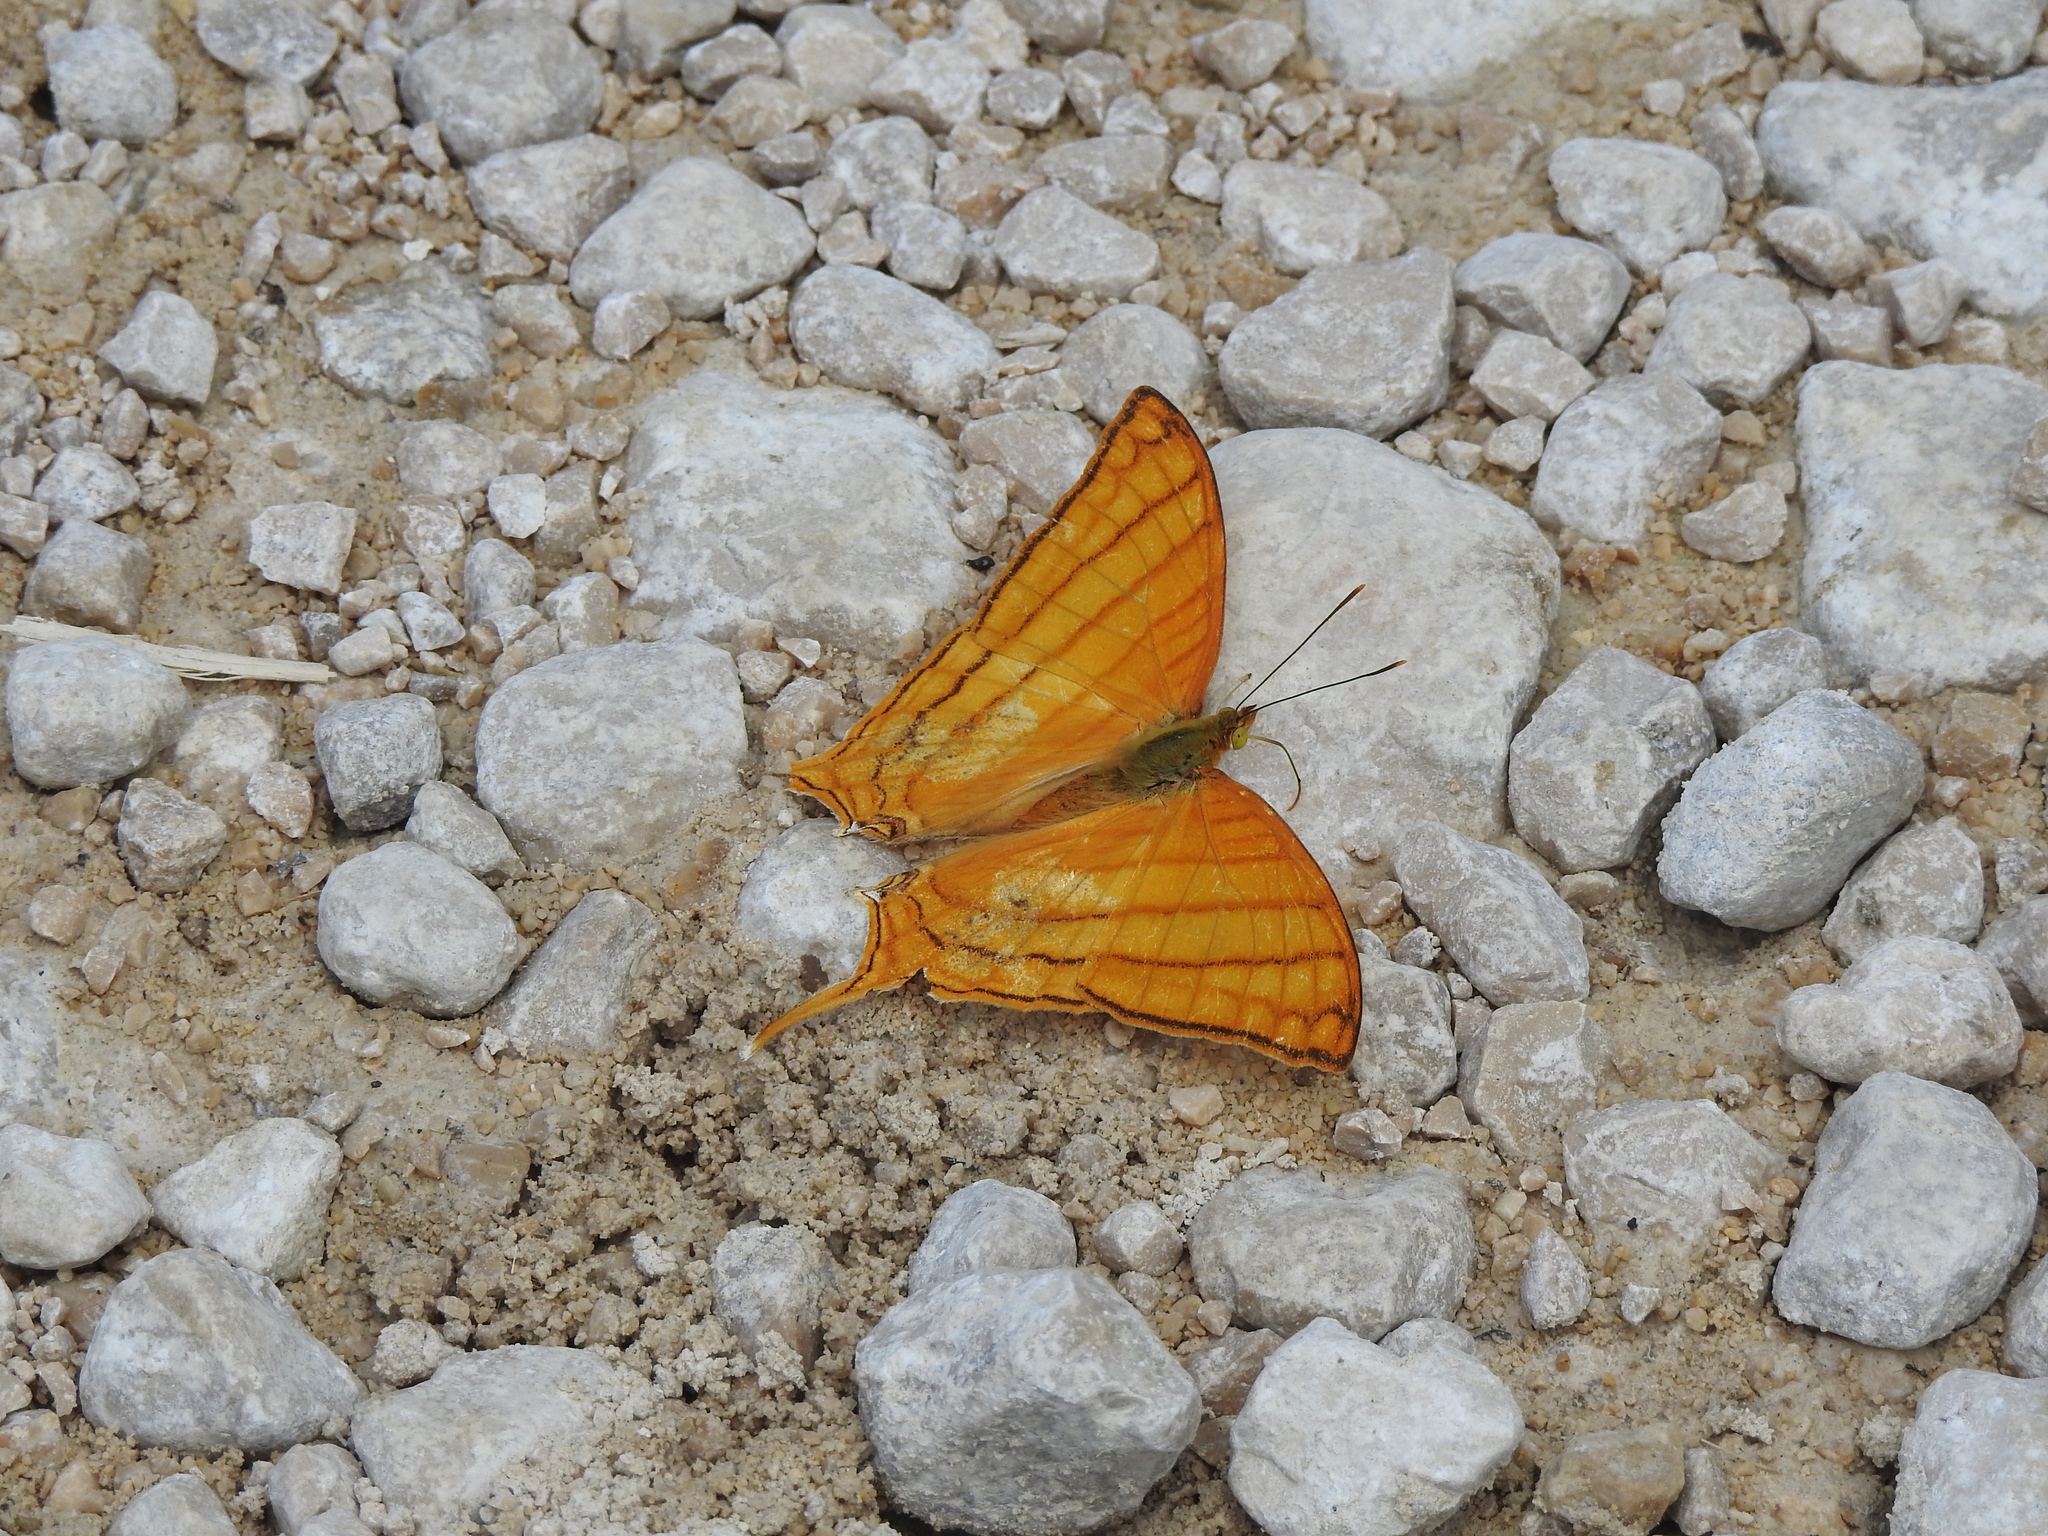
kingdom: Animalia
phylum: Arthropoda
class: Insecta
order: Lepidoptera
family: Nymphalidae
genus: Marpesia
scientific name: Marpesia harmonia
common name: Pale daggerwing
